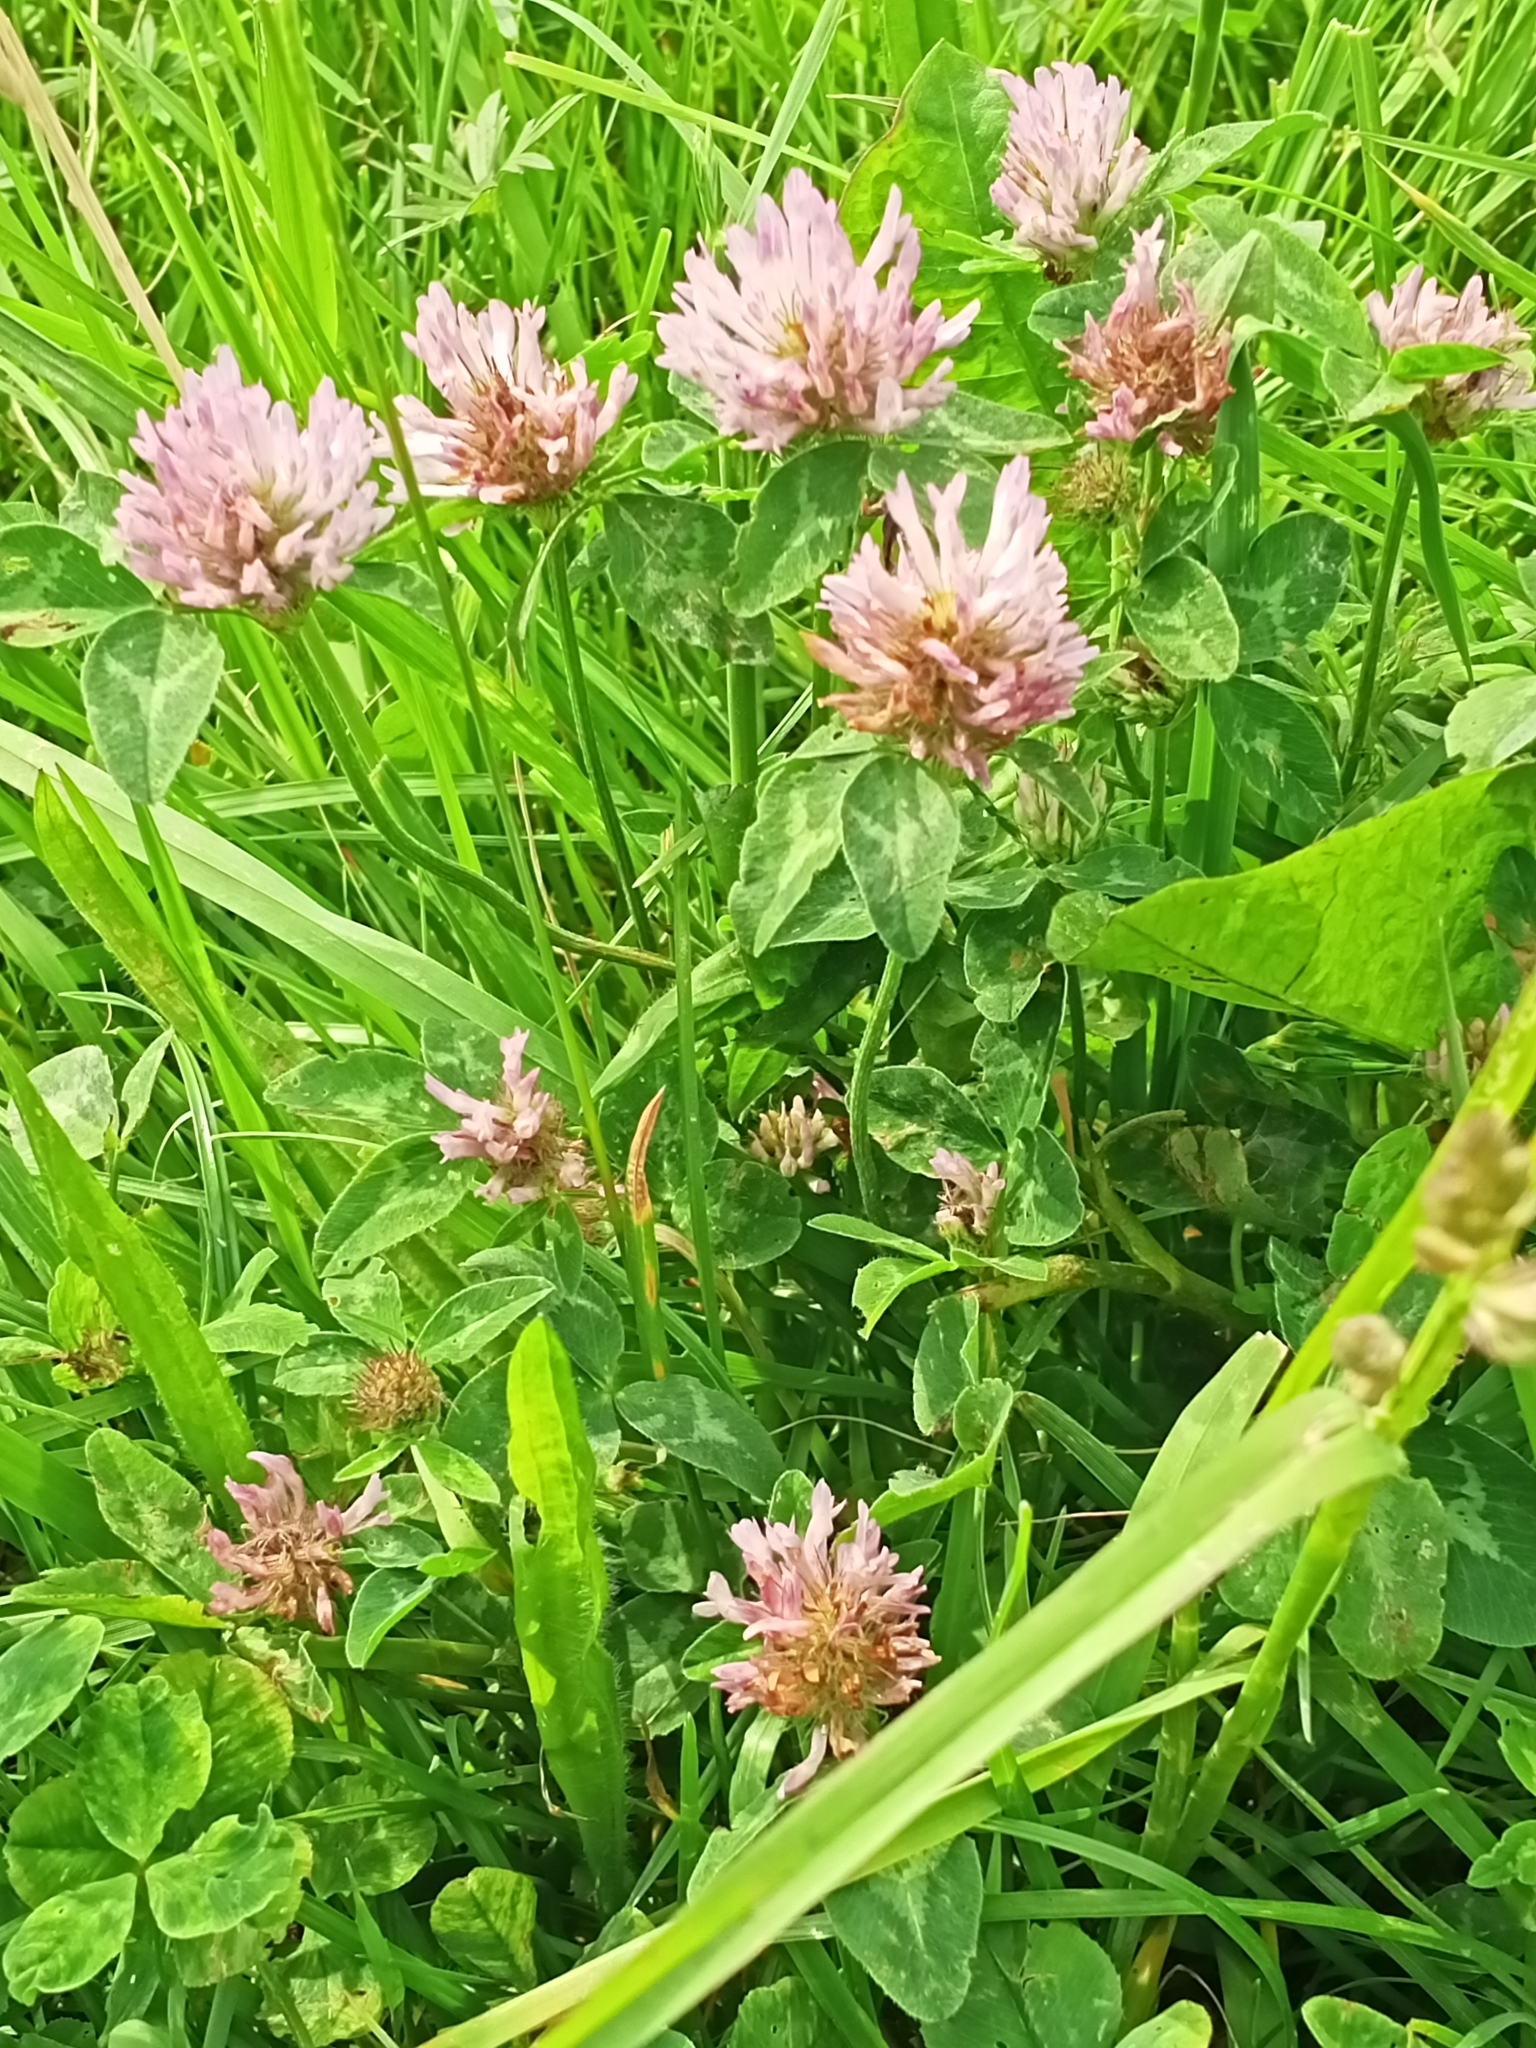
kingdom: Plantae
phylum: Tracheophyta
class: Magnoliopsida
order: Fabales
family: Fabaceae
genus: Trifolium
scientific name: Trifolium pratense
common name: Red clover
